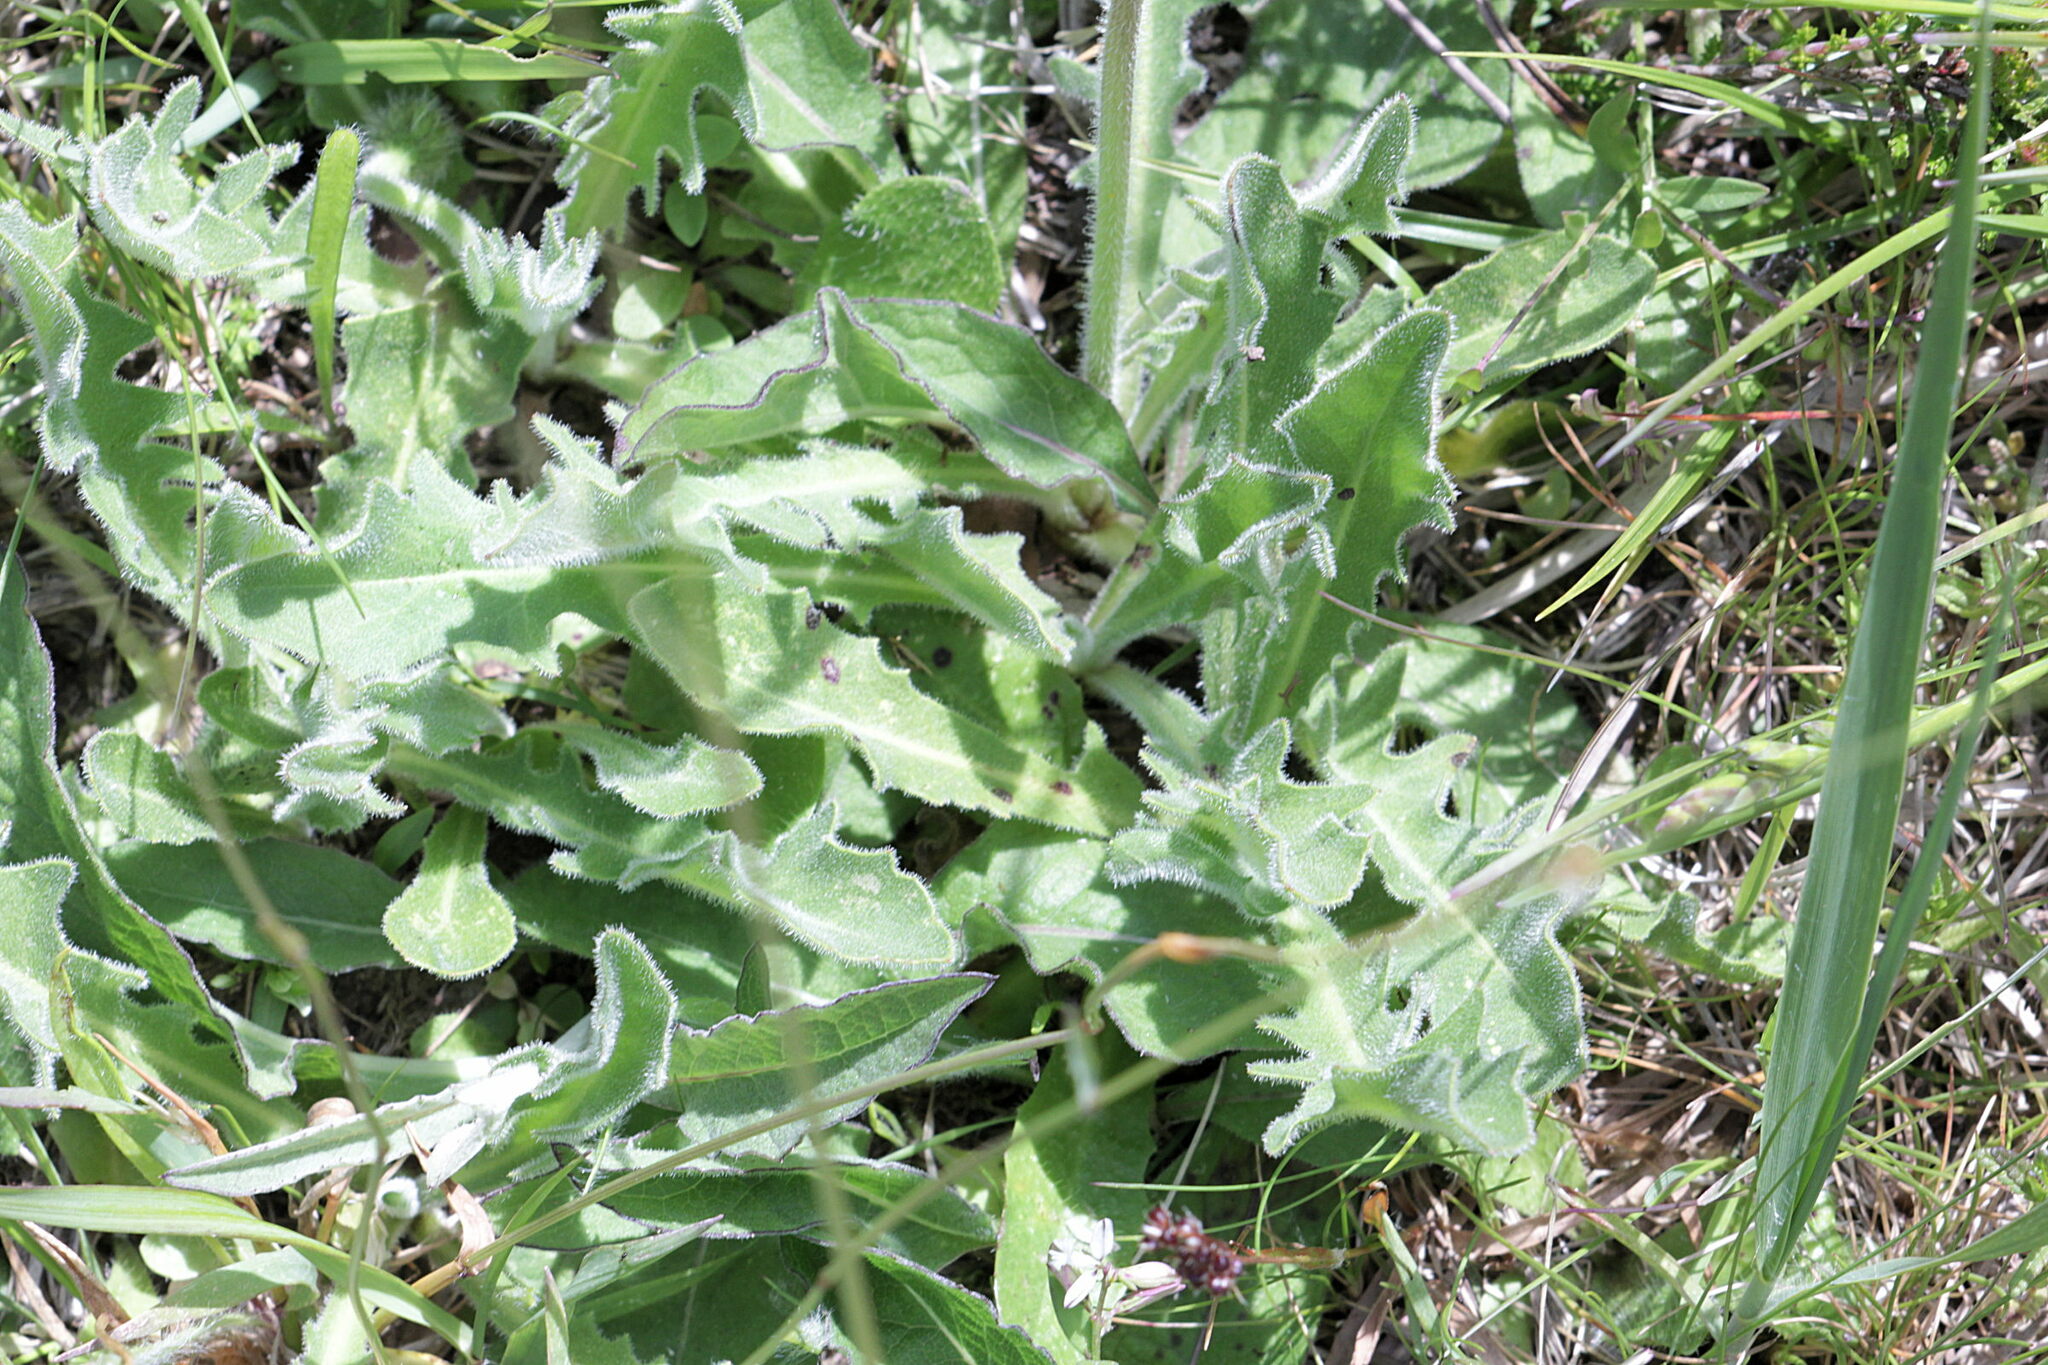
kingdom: Plantae
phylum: Tracheophyta
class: Magnoliopsida
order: Asterales
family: Asteraceae
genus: Leontodon
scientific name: Leontodon hispidus
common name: Rough hawkbit
